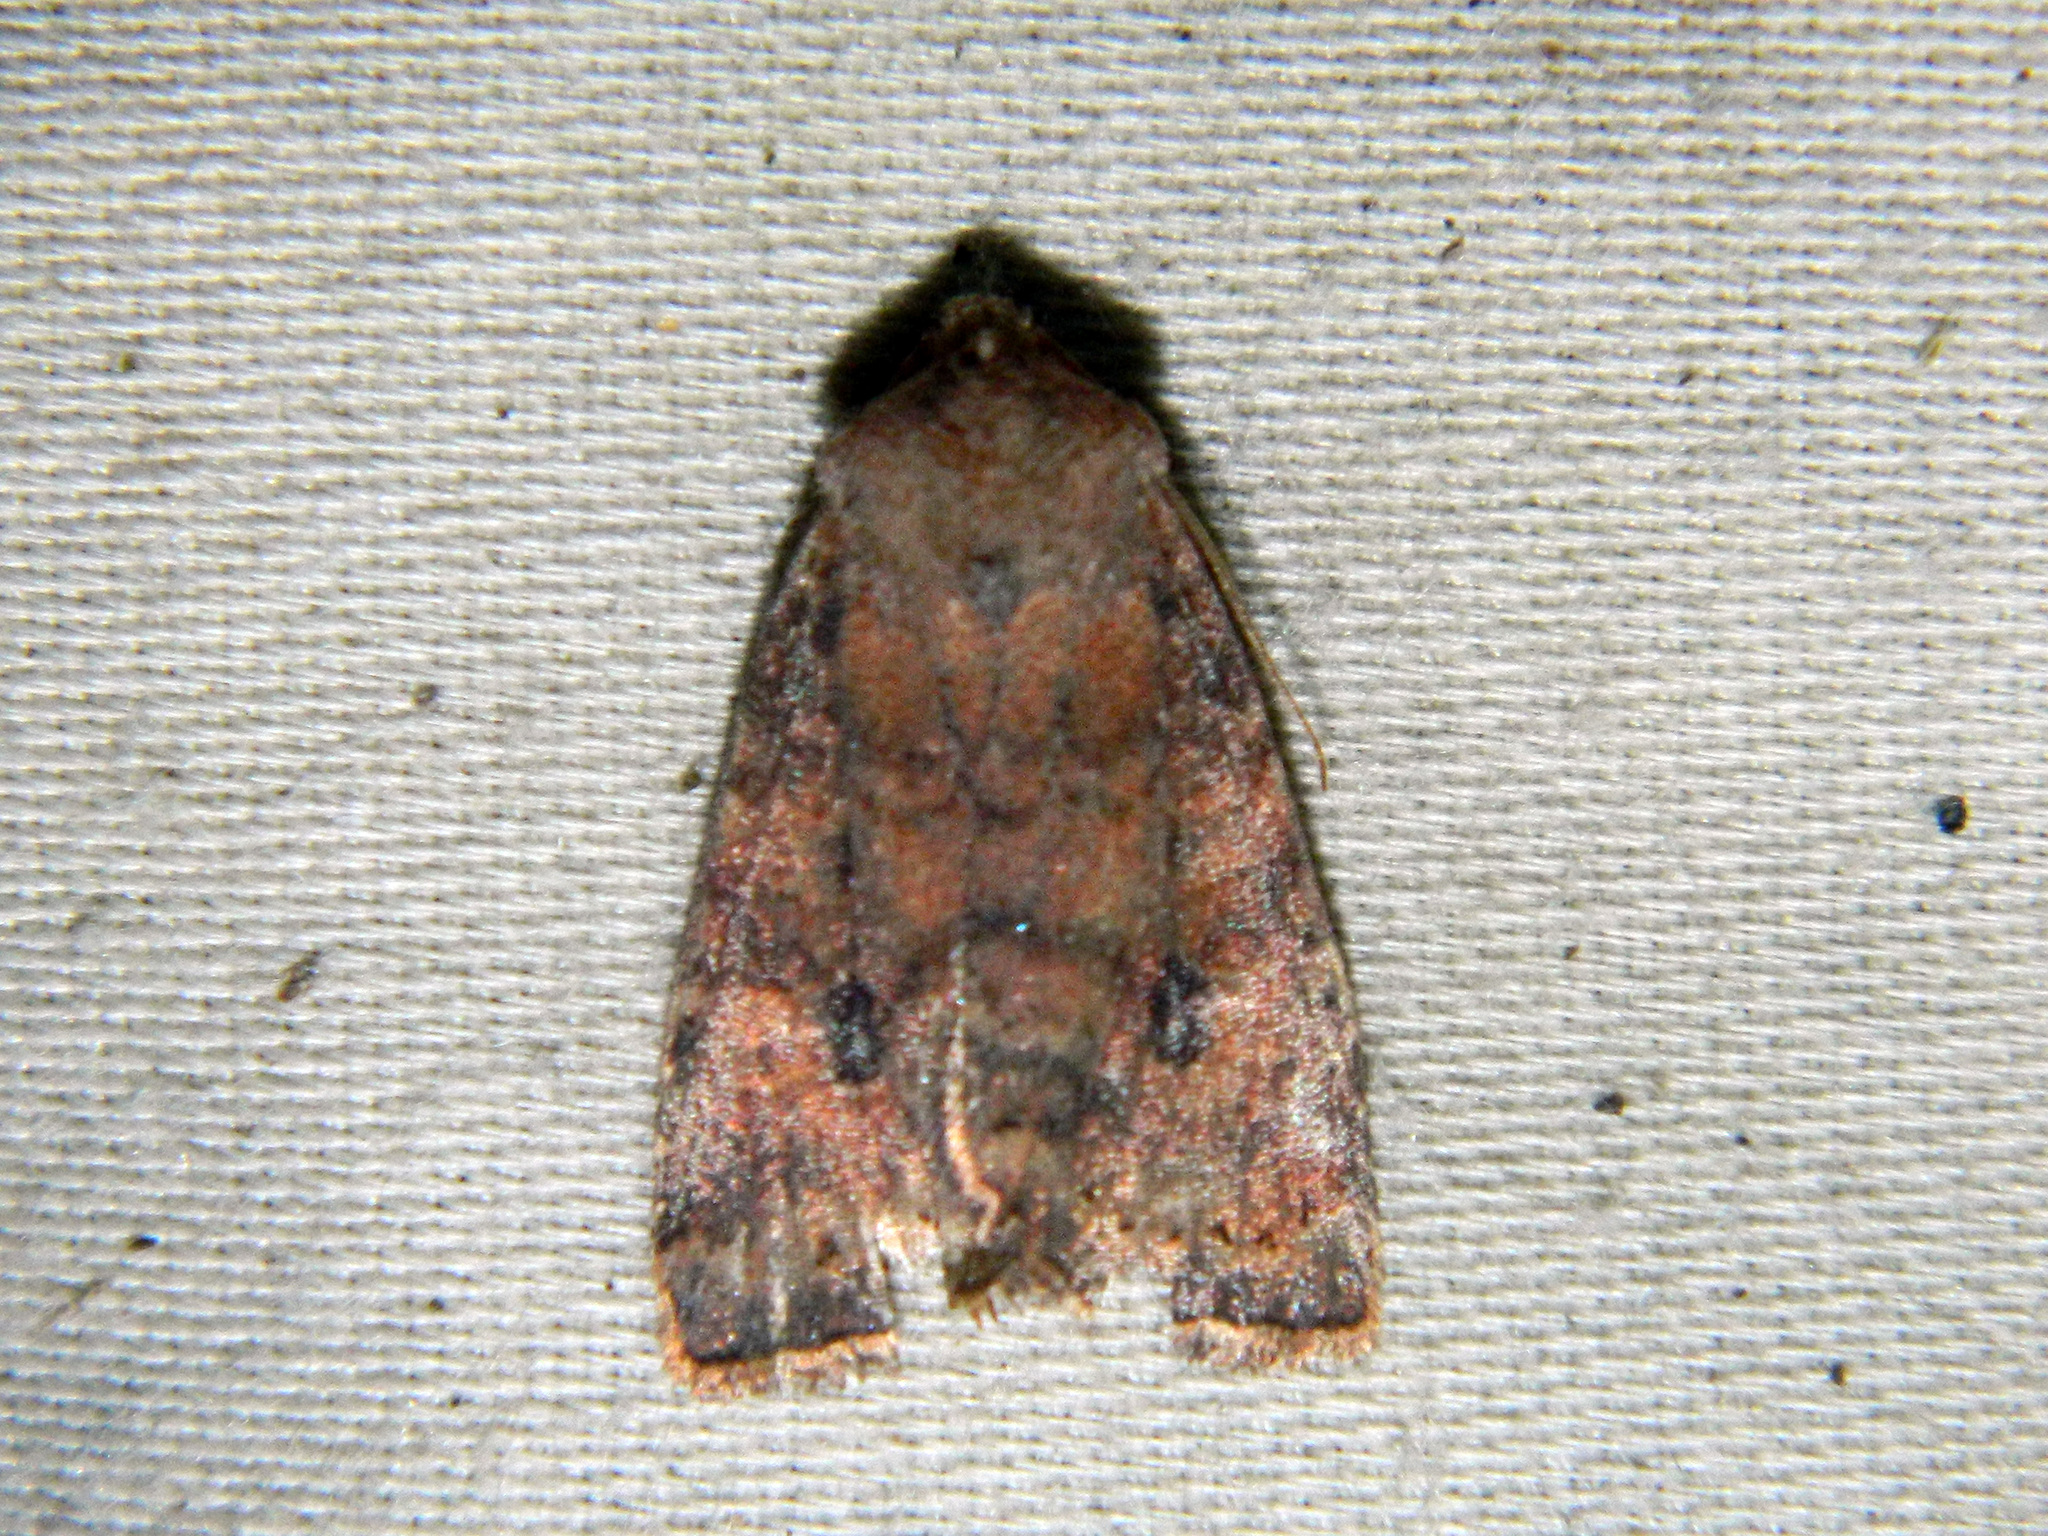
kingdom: Animalia
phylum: Arthropoda
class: Insecta
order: Lepidoptera
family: Noctuidae
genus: Anathix
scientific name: Anathix puta
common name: Puta sallow
